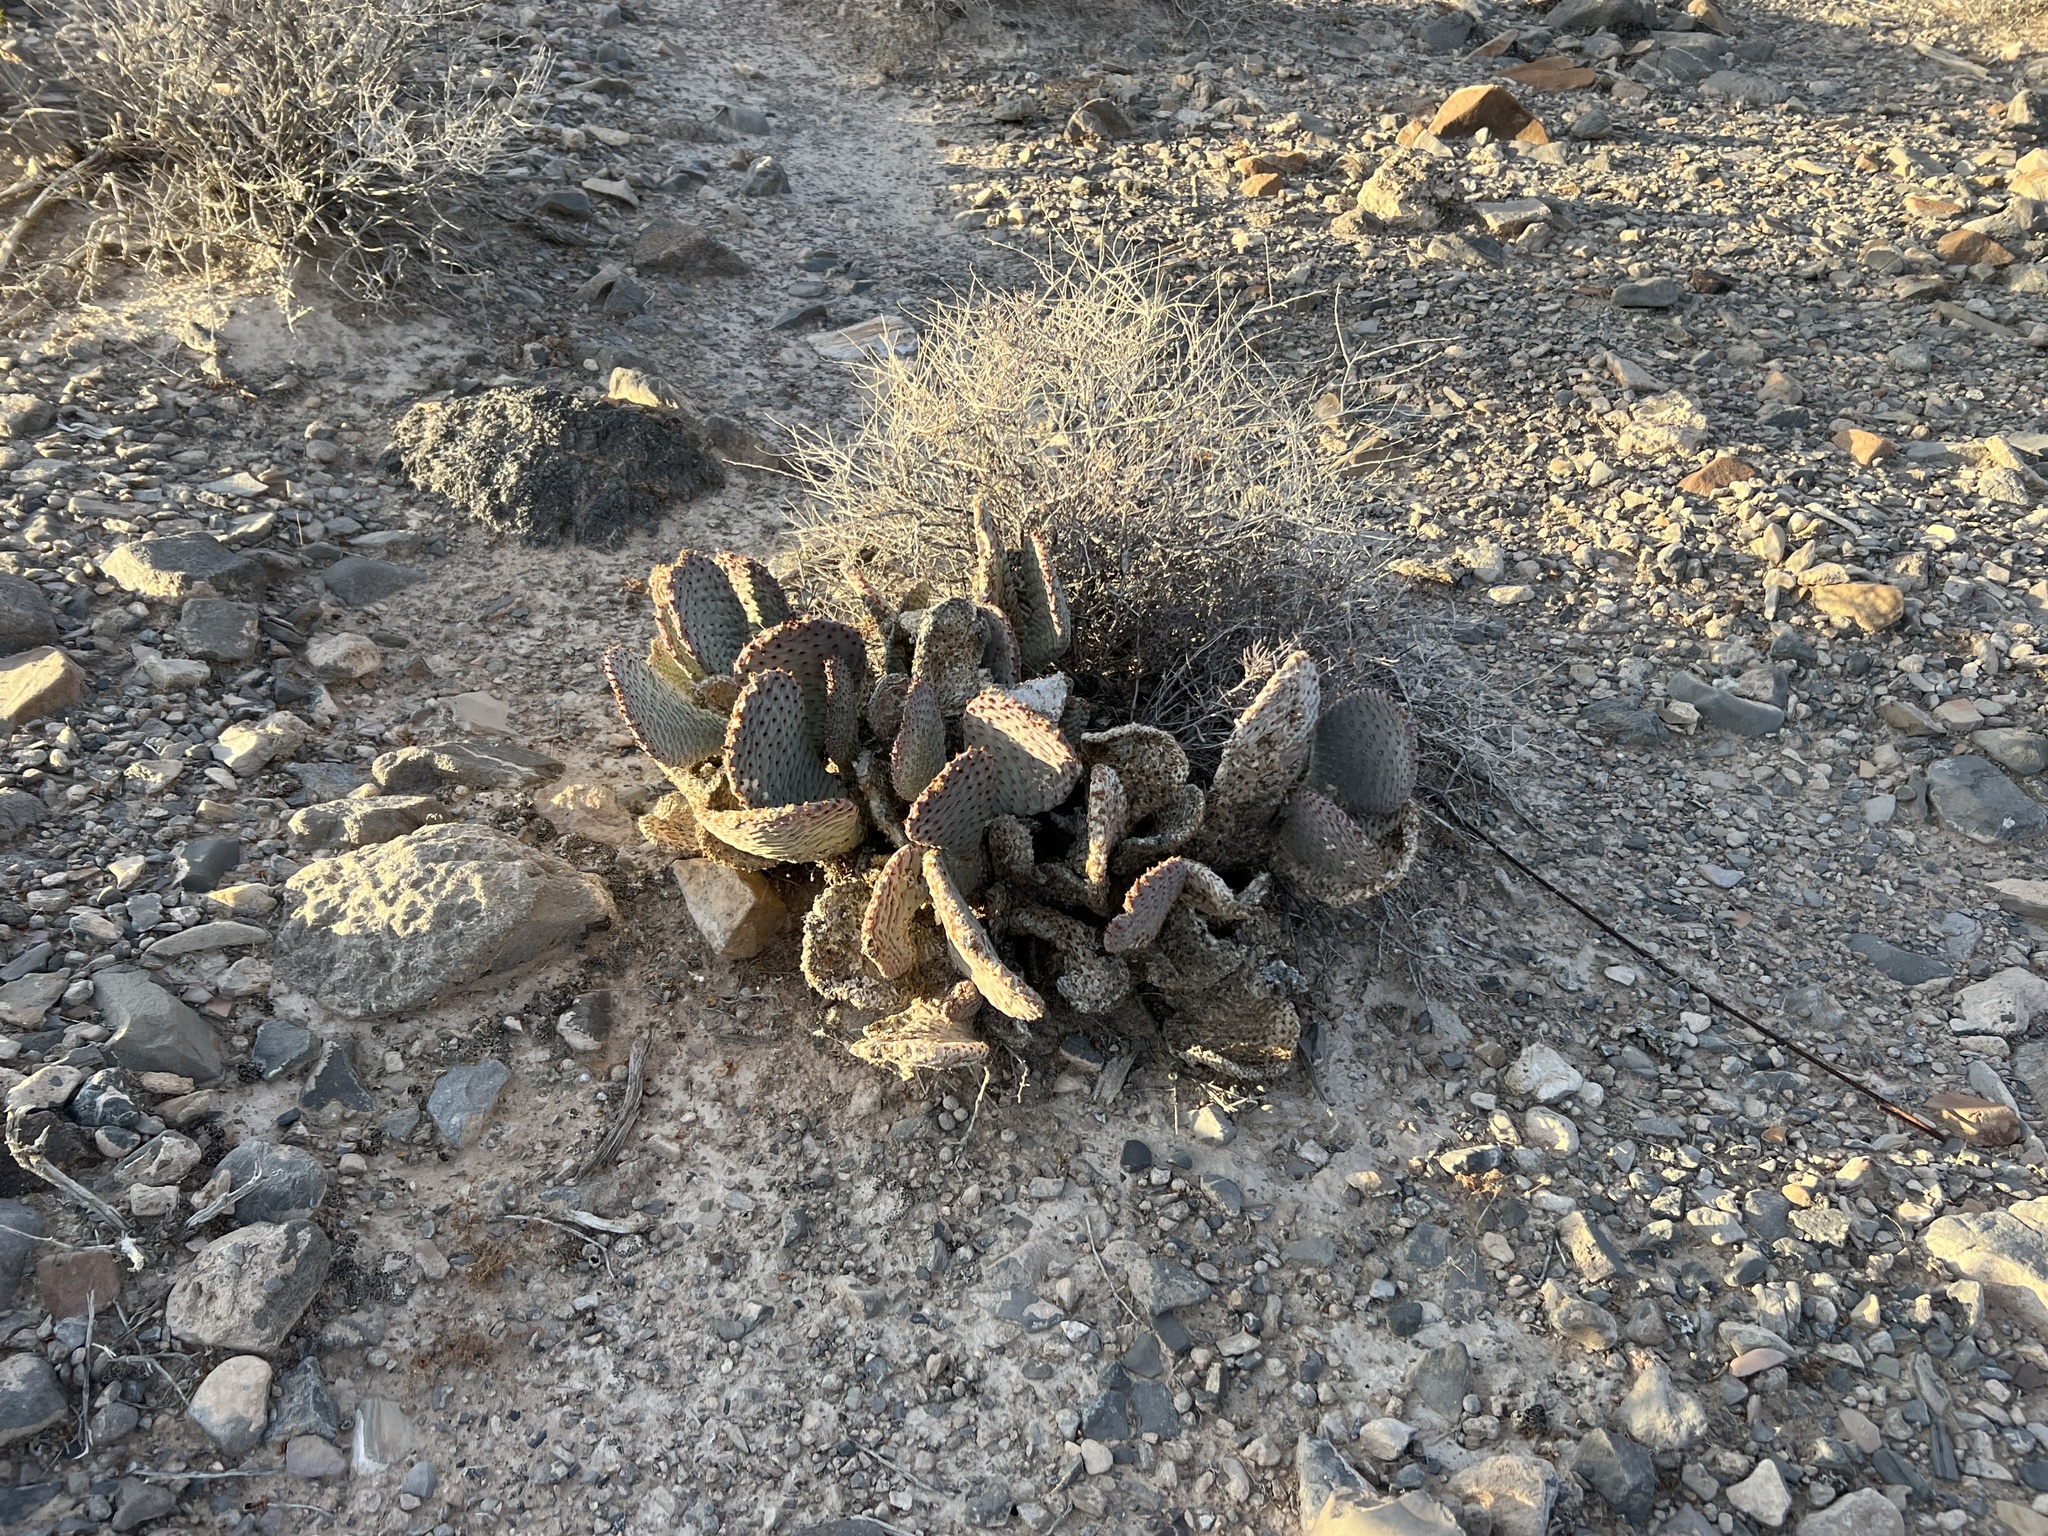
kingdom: Plantae
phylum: Tracheophyta
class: Magnoliopsida
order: Caryophyllales
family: Cactaceae
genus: Opuntia
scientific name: Opuntia basilaris
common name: Beavertail prickly-pear
